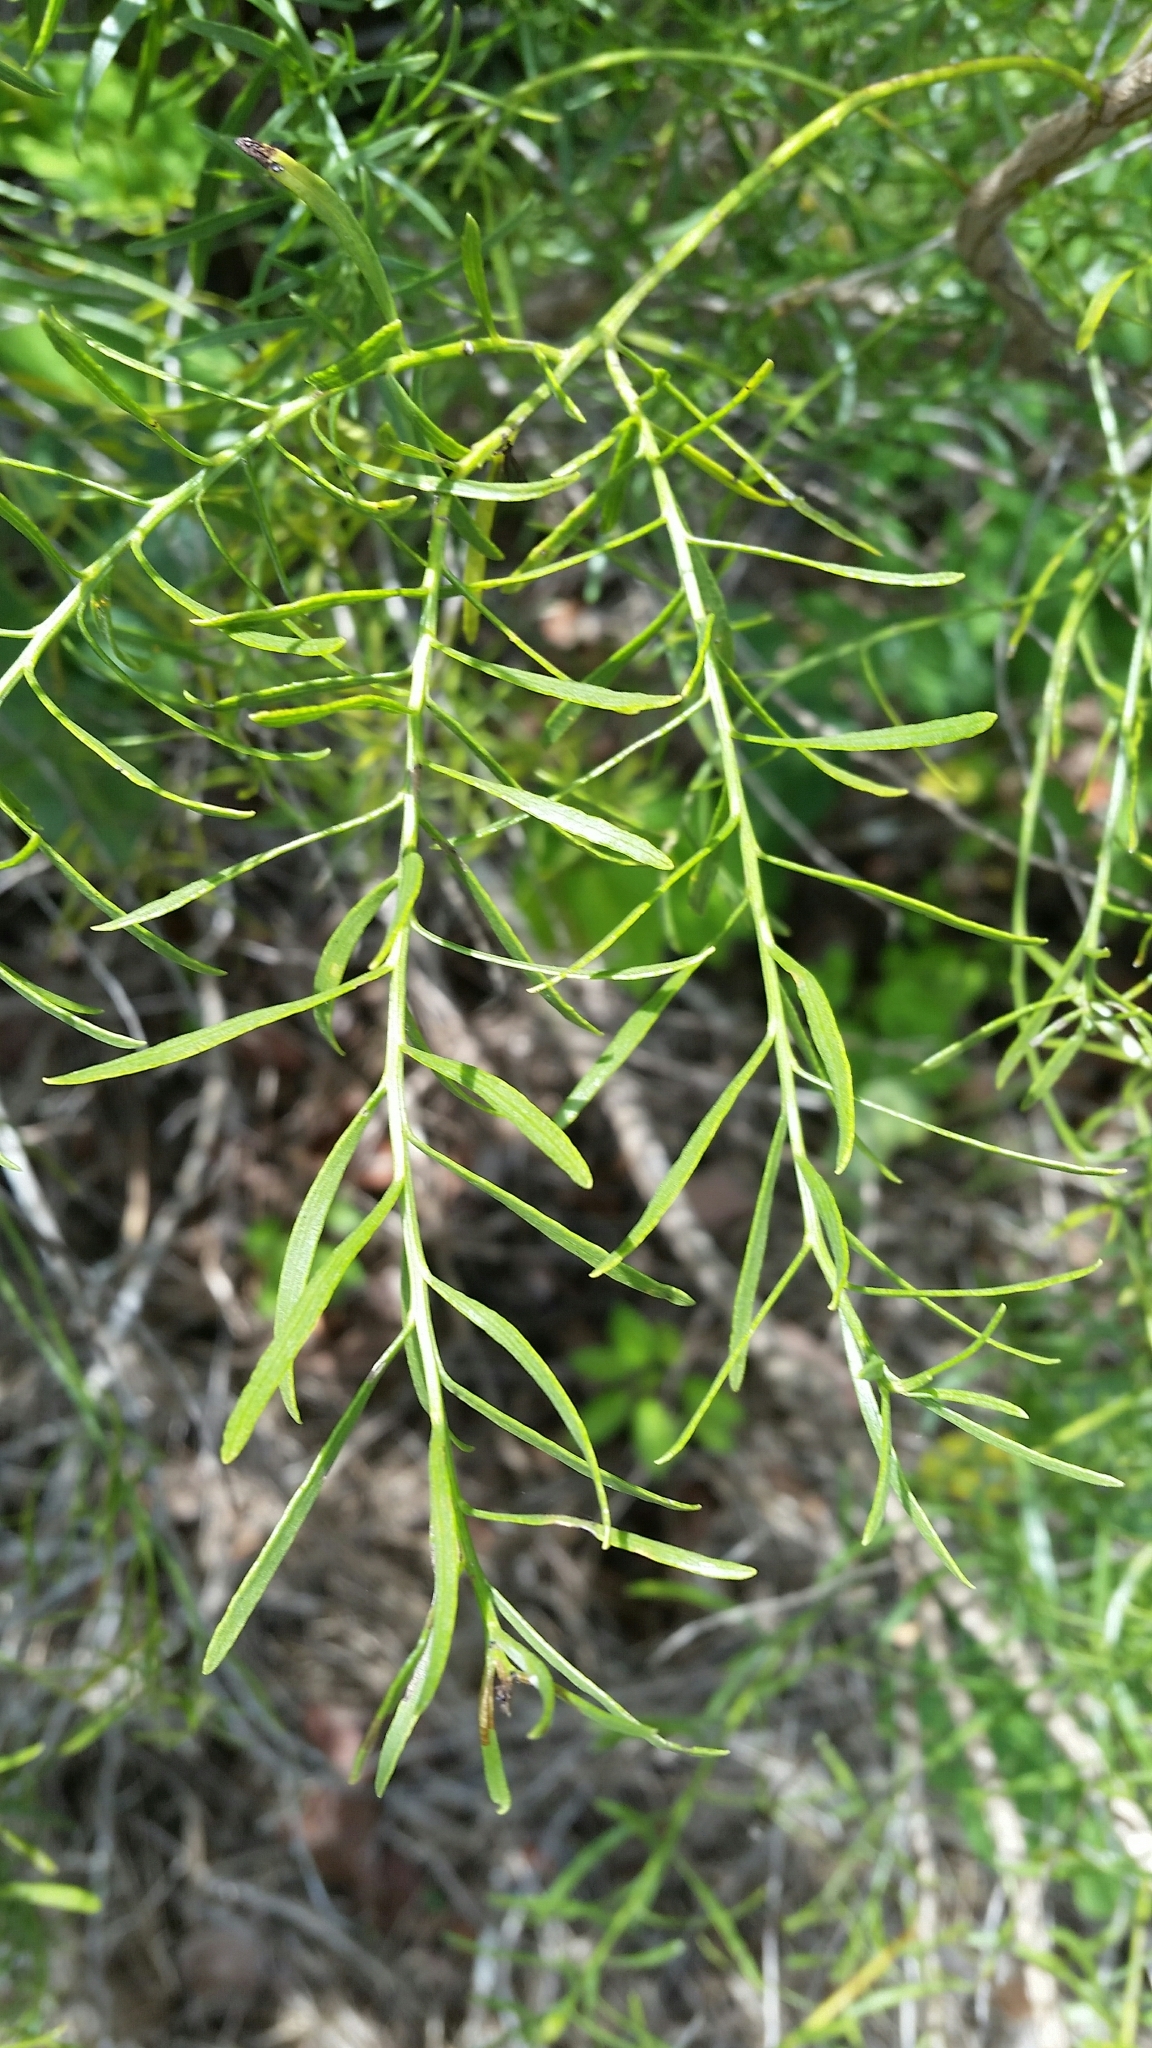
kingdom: Plantae
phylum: Tracheophyta
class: Magnoliopsida
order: Asterales
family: Asteraceae
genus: Baccharis
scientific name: Baccharis angustifolia
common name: Narrow-leaf baccharis
